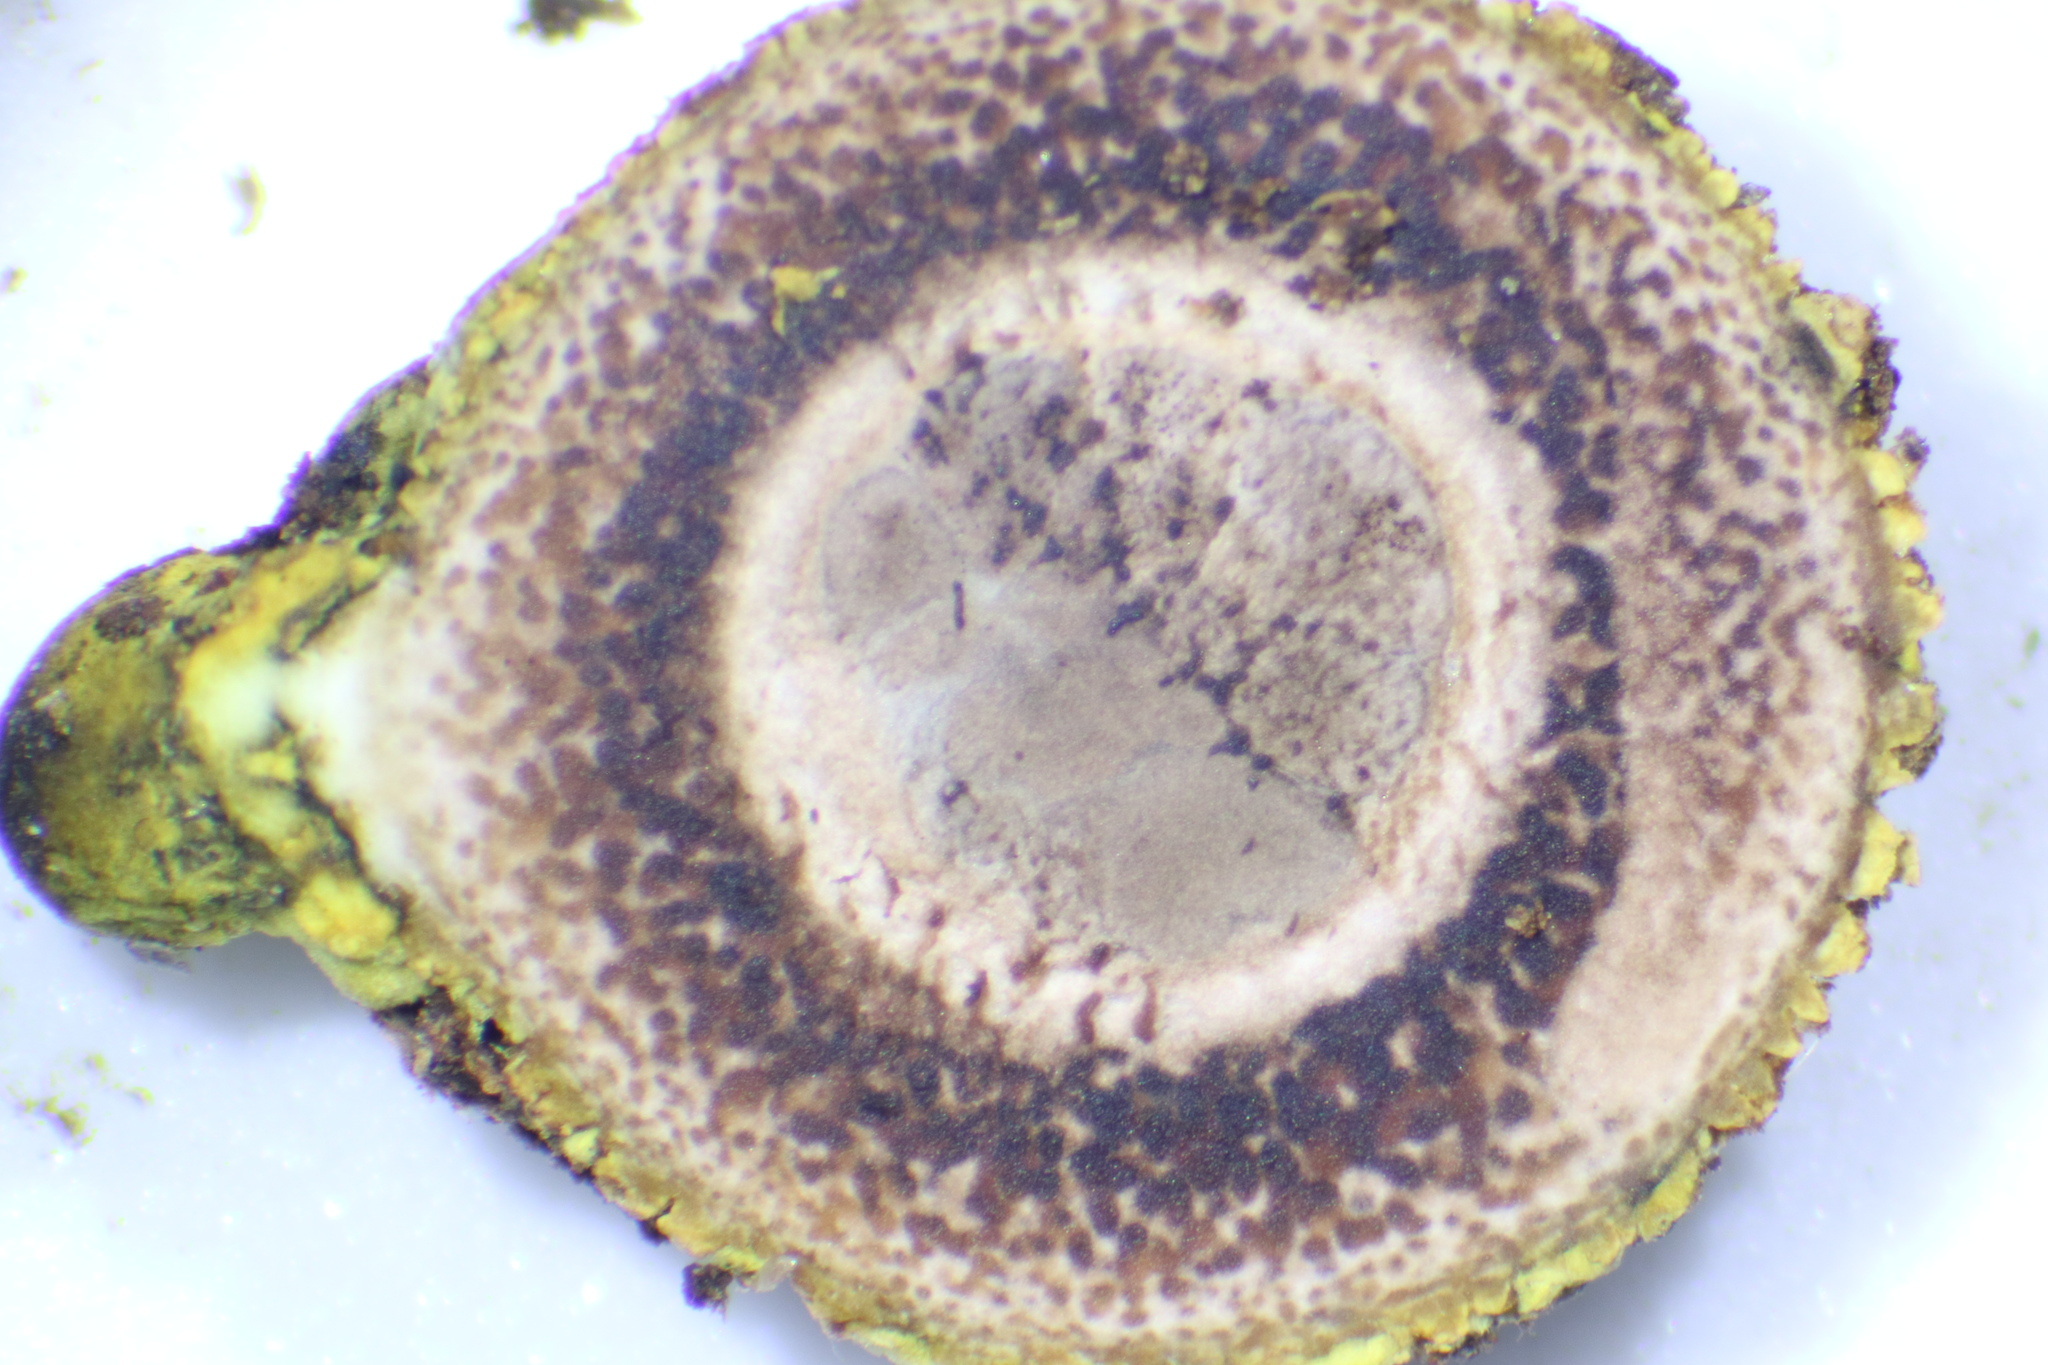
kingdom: Fungi
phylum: Ascomycota
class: Eurotiomycetes
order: Eurotiales
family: Elaphomycetaceae
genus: Elaphomyces
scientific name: Elaphomyces muricatus
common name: Marbled false truffle
